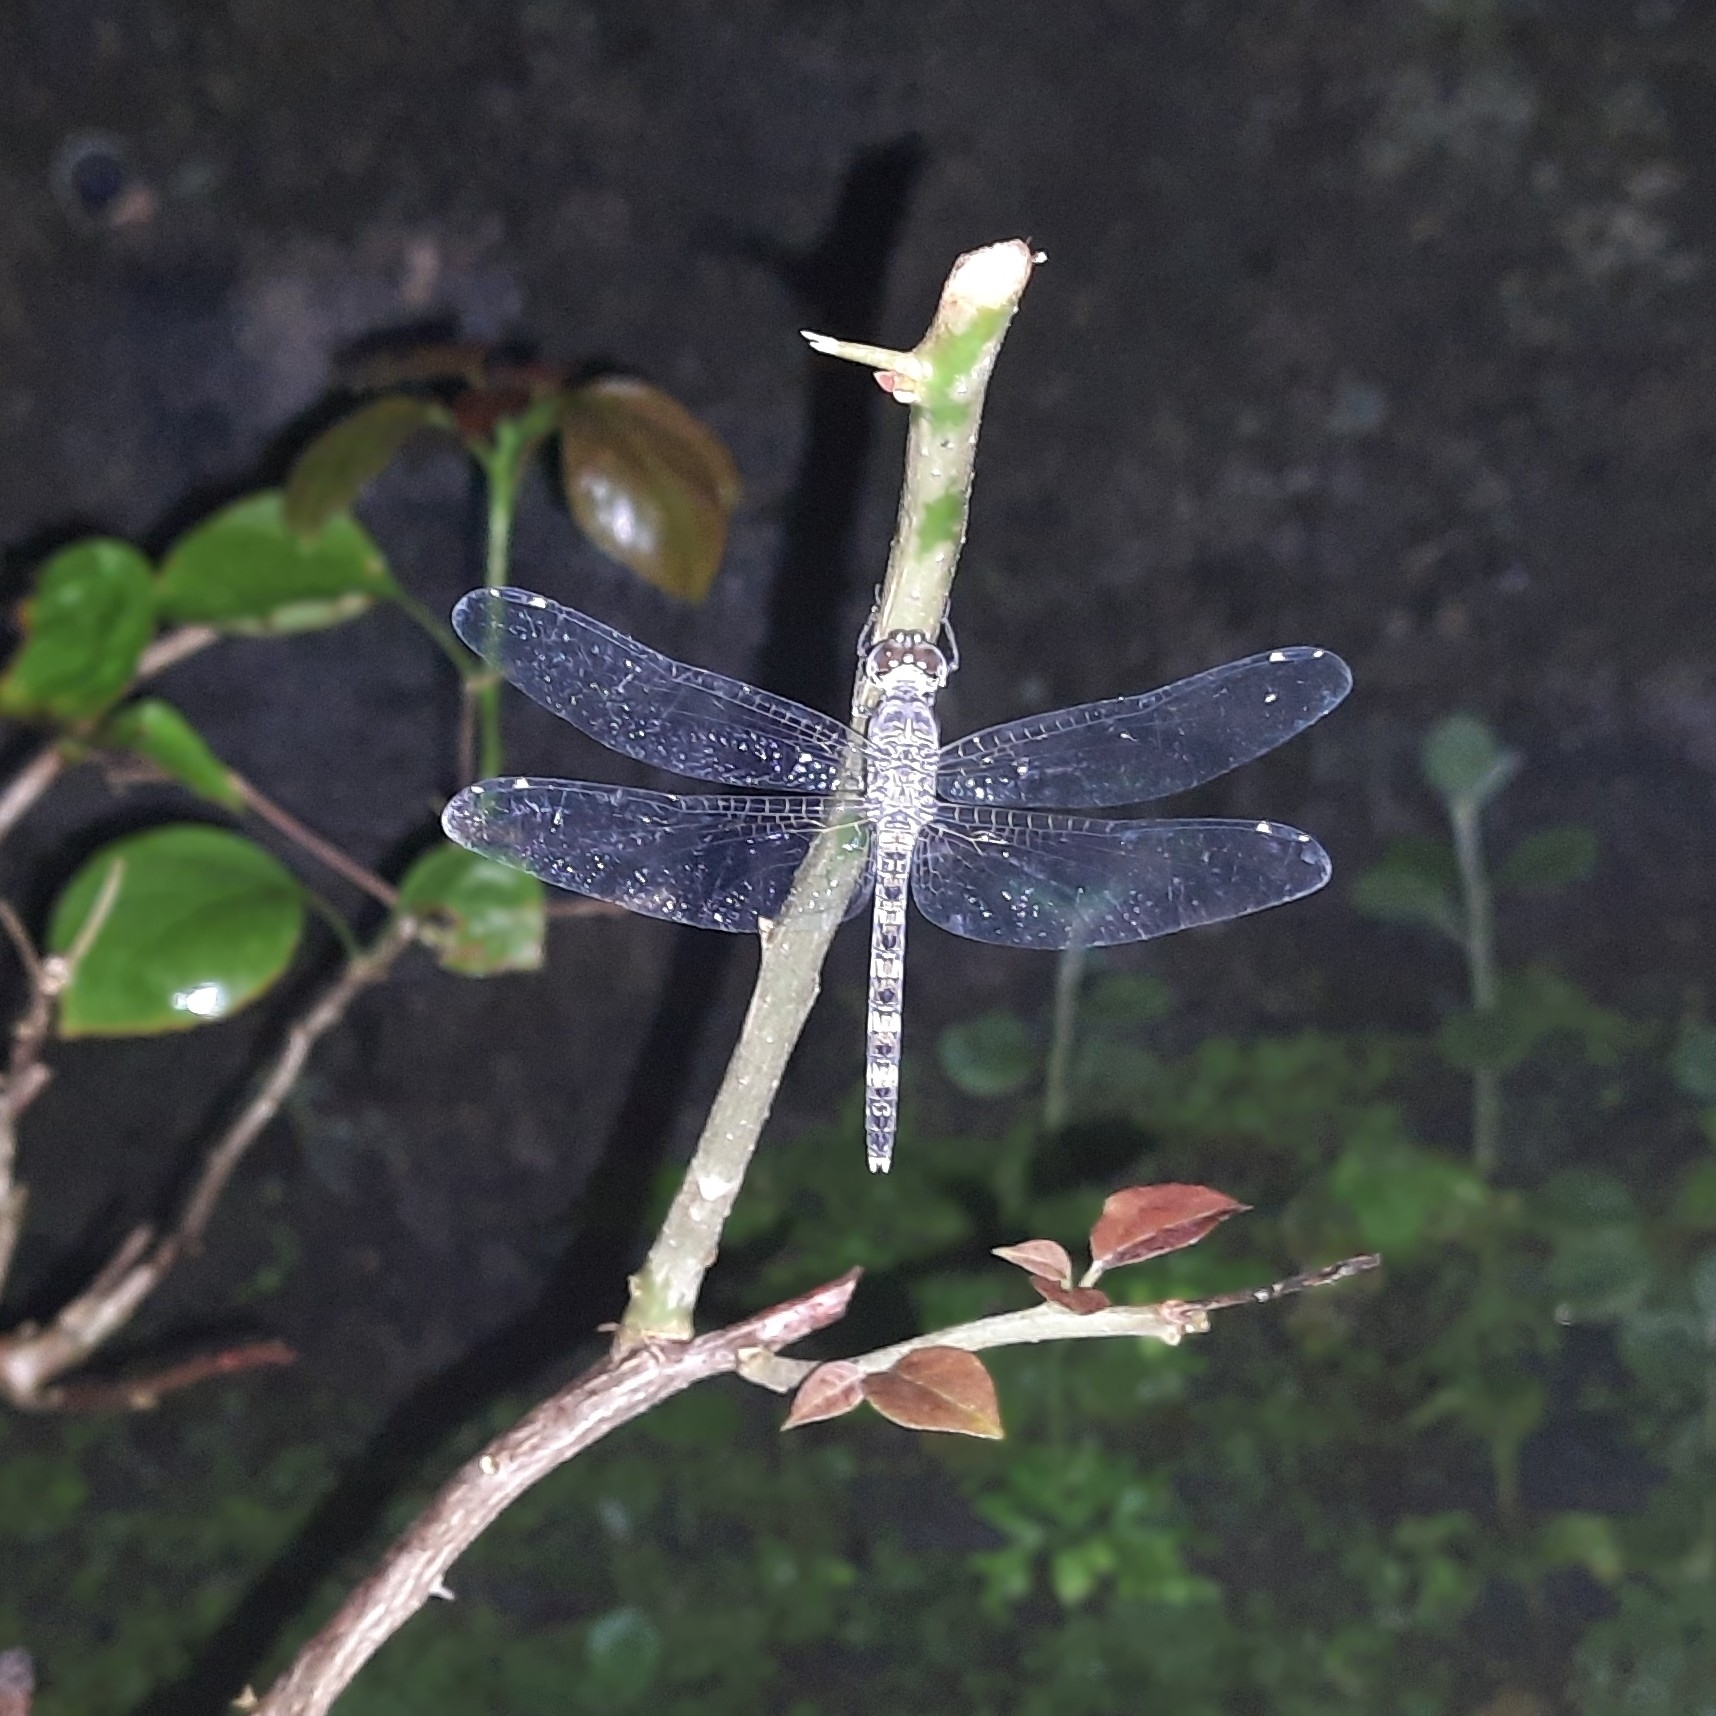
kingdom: Animalia
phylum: Arthropoda
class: Insecta
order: Odonata
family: Libellulidae
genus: Bradinopyga
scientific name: Bradinopyga geminata
